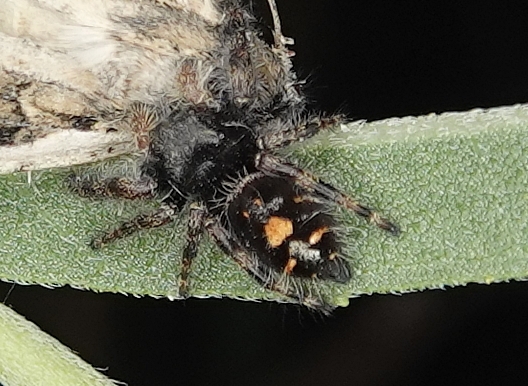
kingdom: Animalia
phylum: Arthropoda
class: Arachnida
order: Araneae
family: Salticidae
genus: Phidippus
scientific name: Phidippus audax
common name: Bold jumper
